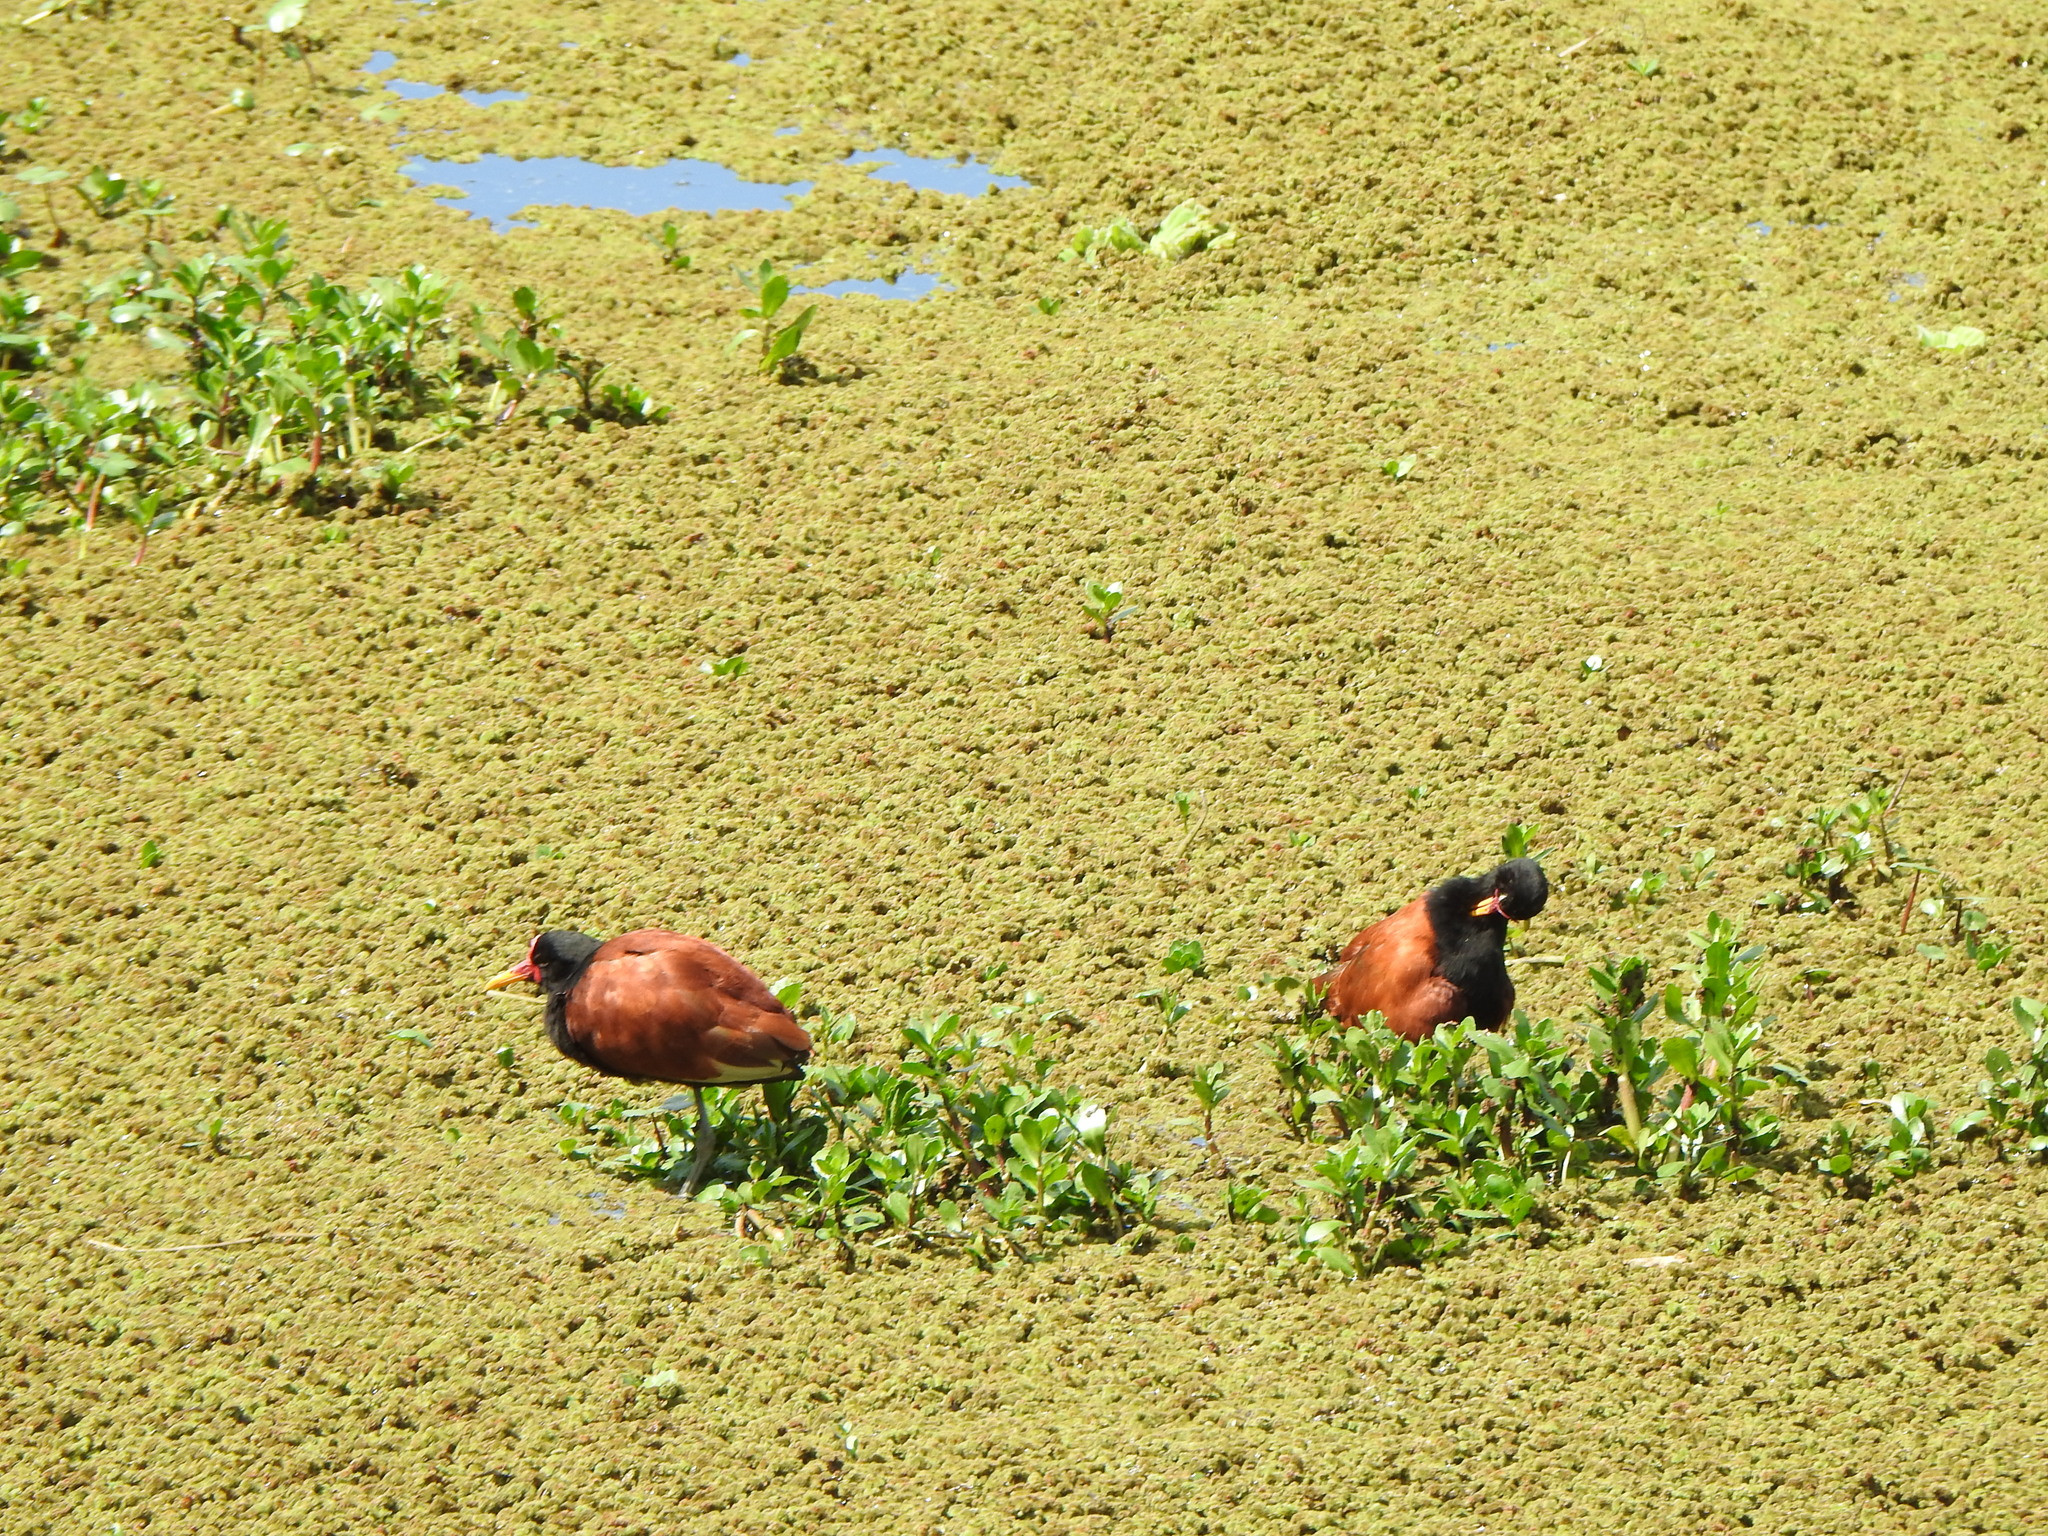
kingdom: Animalia
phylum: Chordata
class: Aves
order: Charadriiformes
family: Jacanidae
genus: Jacana
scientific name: Jacana jacana
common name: Wattled jacana
